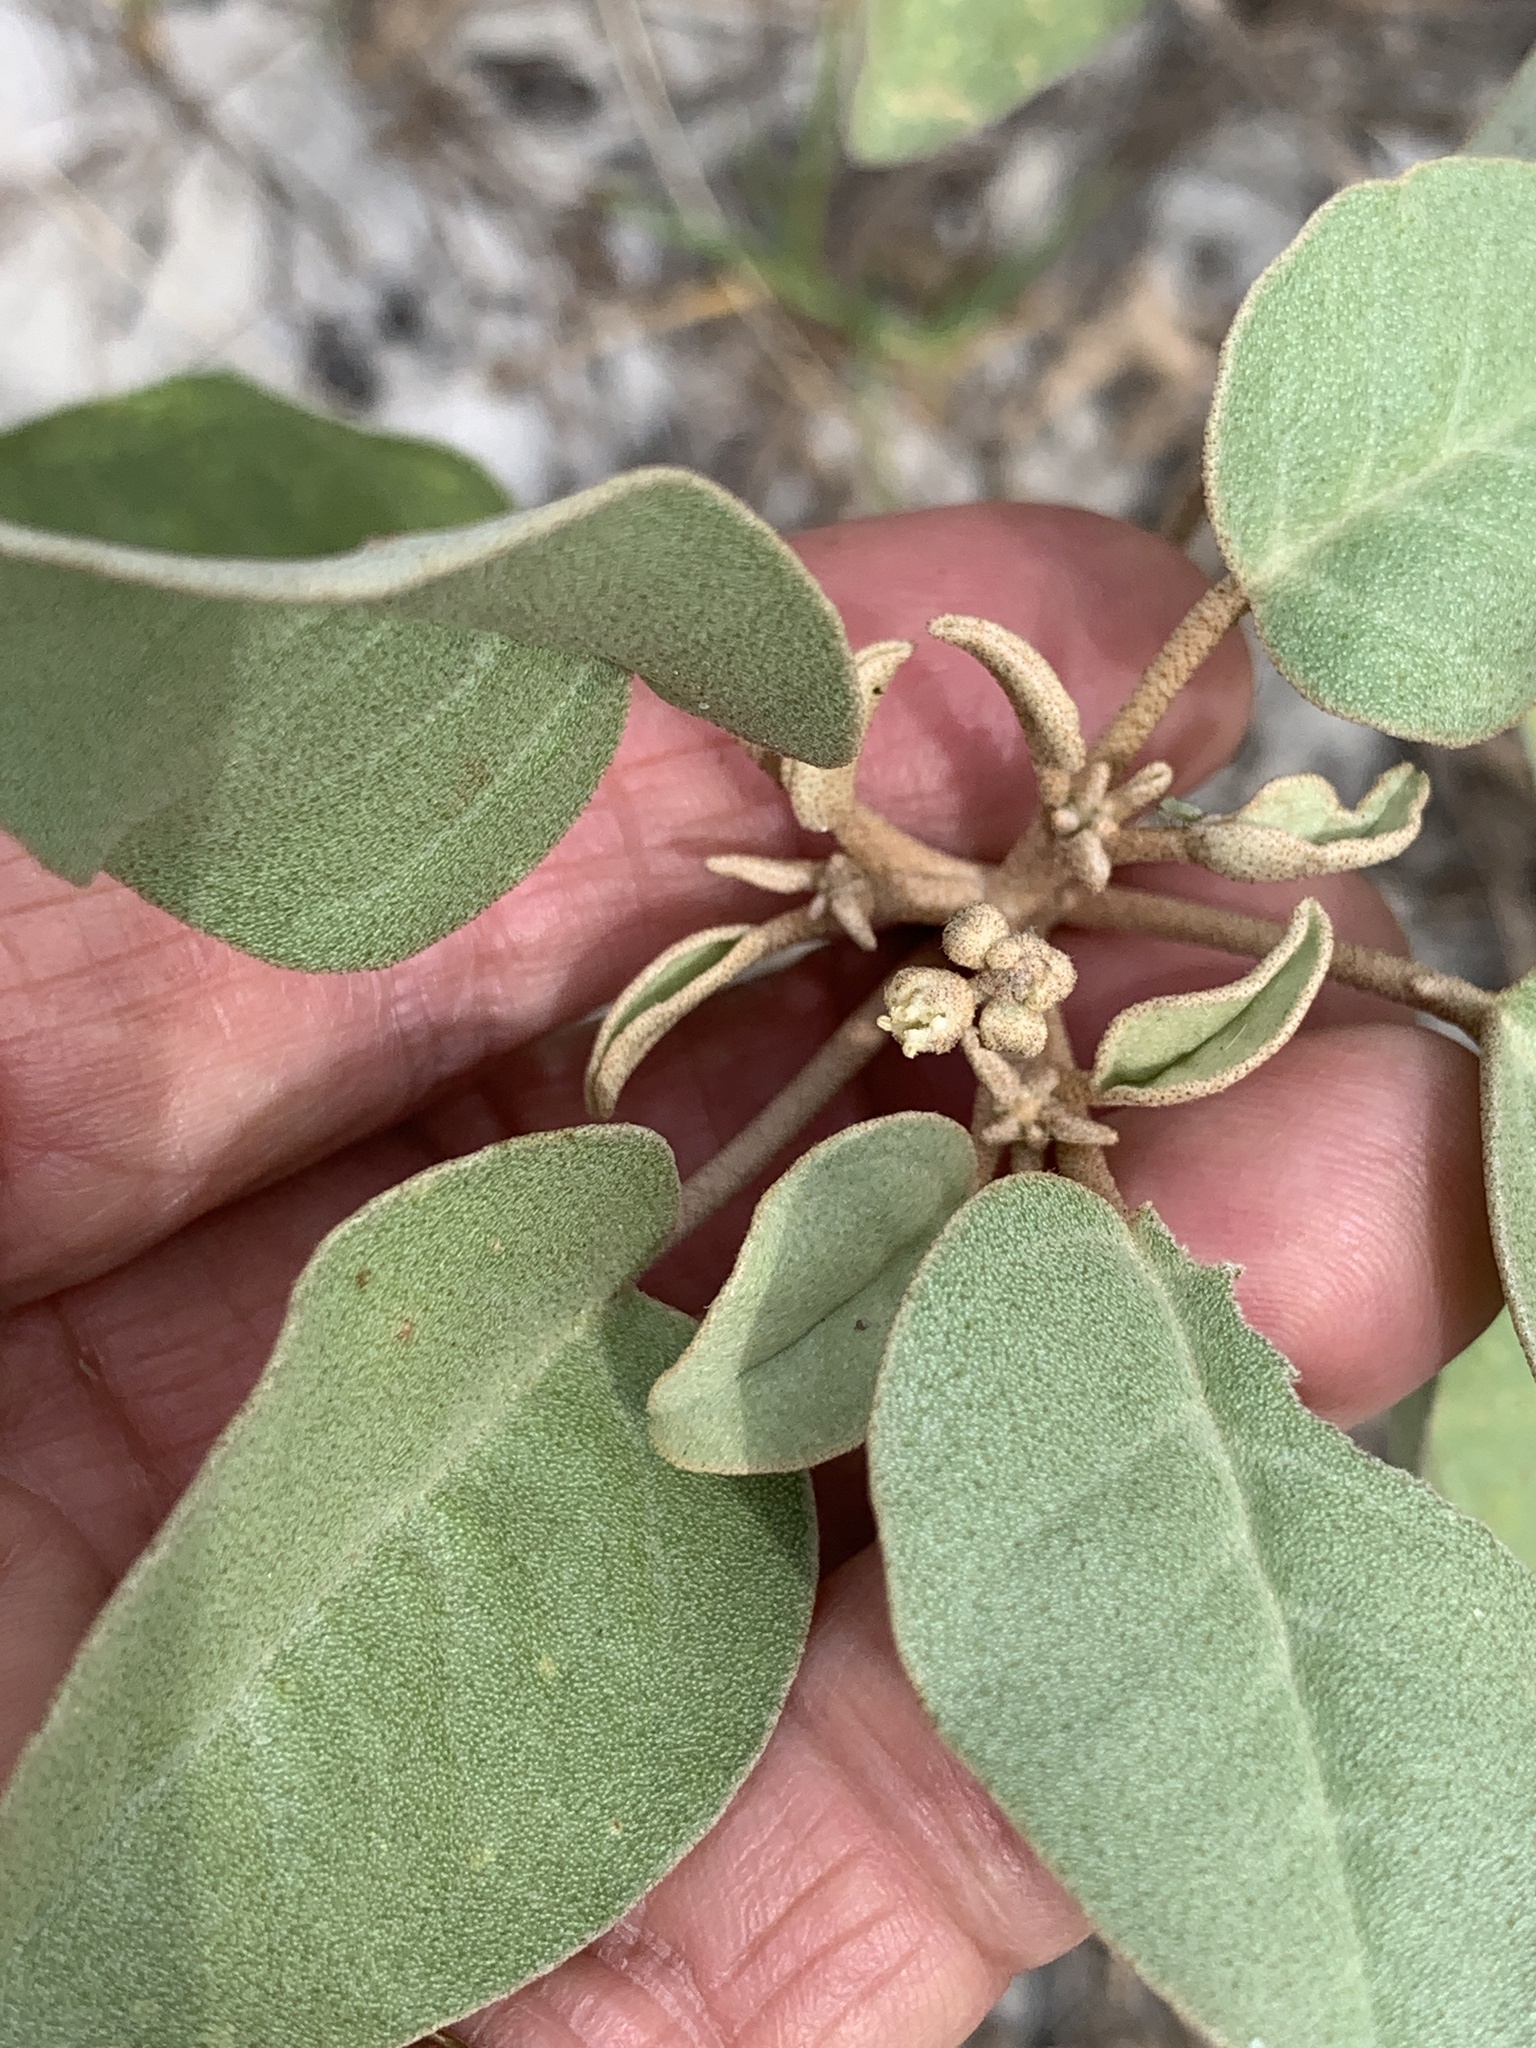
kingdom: Plantae
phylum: Tracheophyta
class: Magnoliopsida
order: Malpighiales
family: Euphorbiaceae
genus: Croton
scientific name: Croton punctatus
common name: Beach-tea
